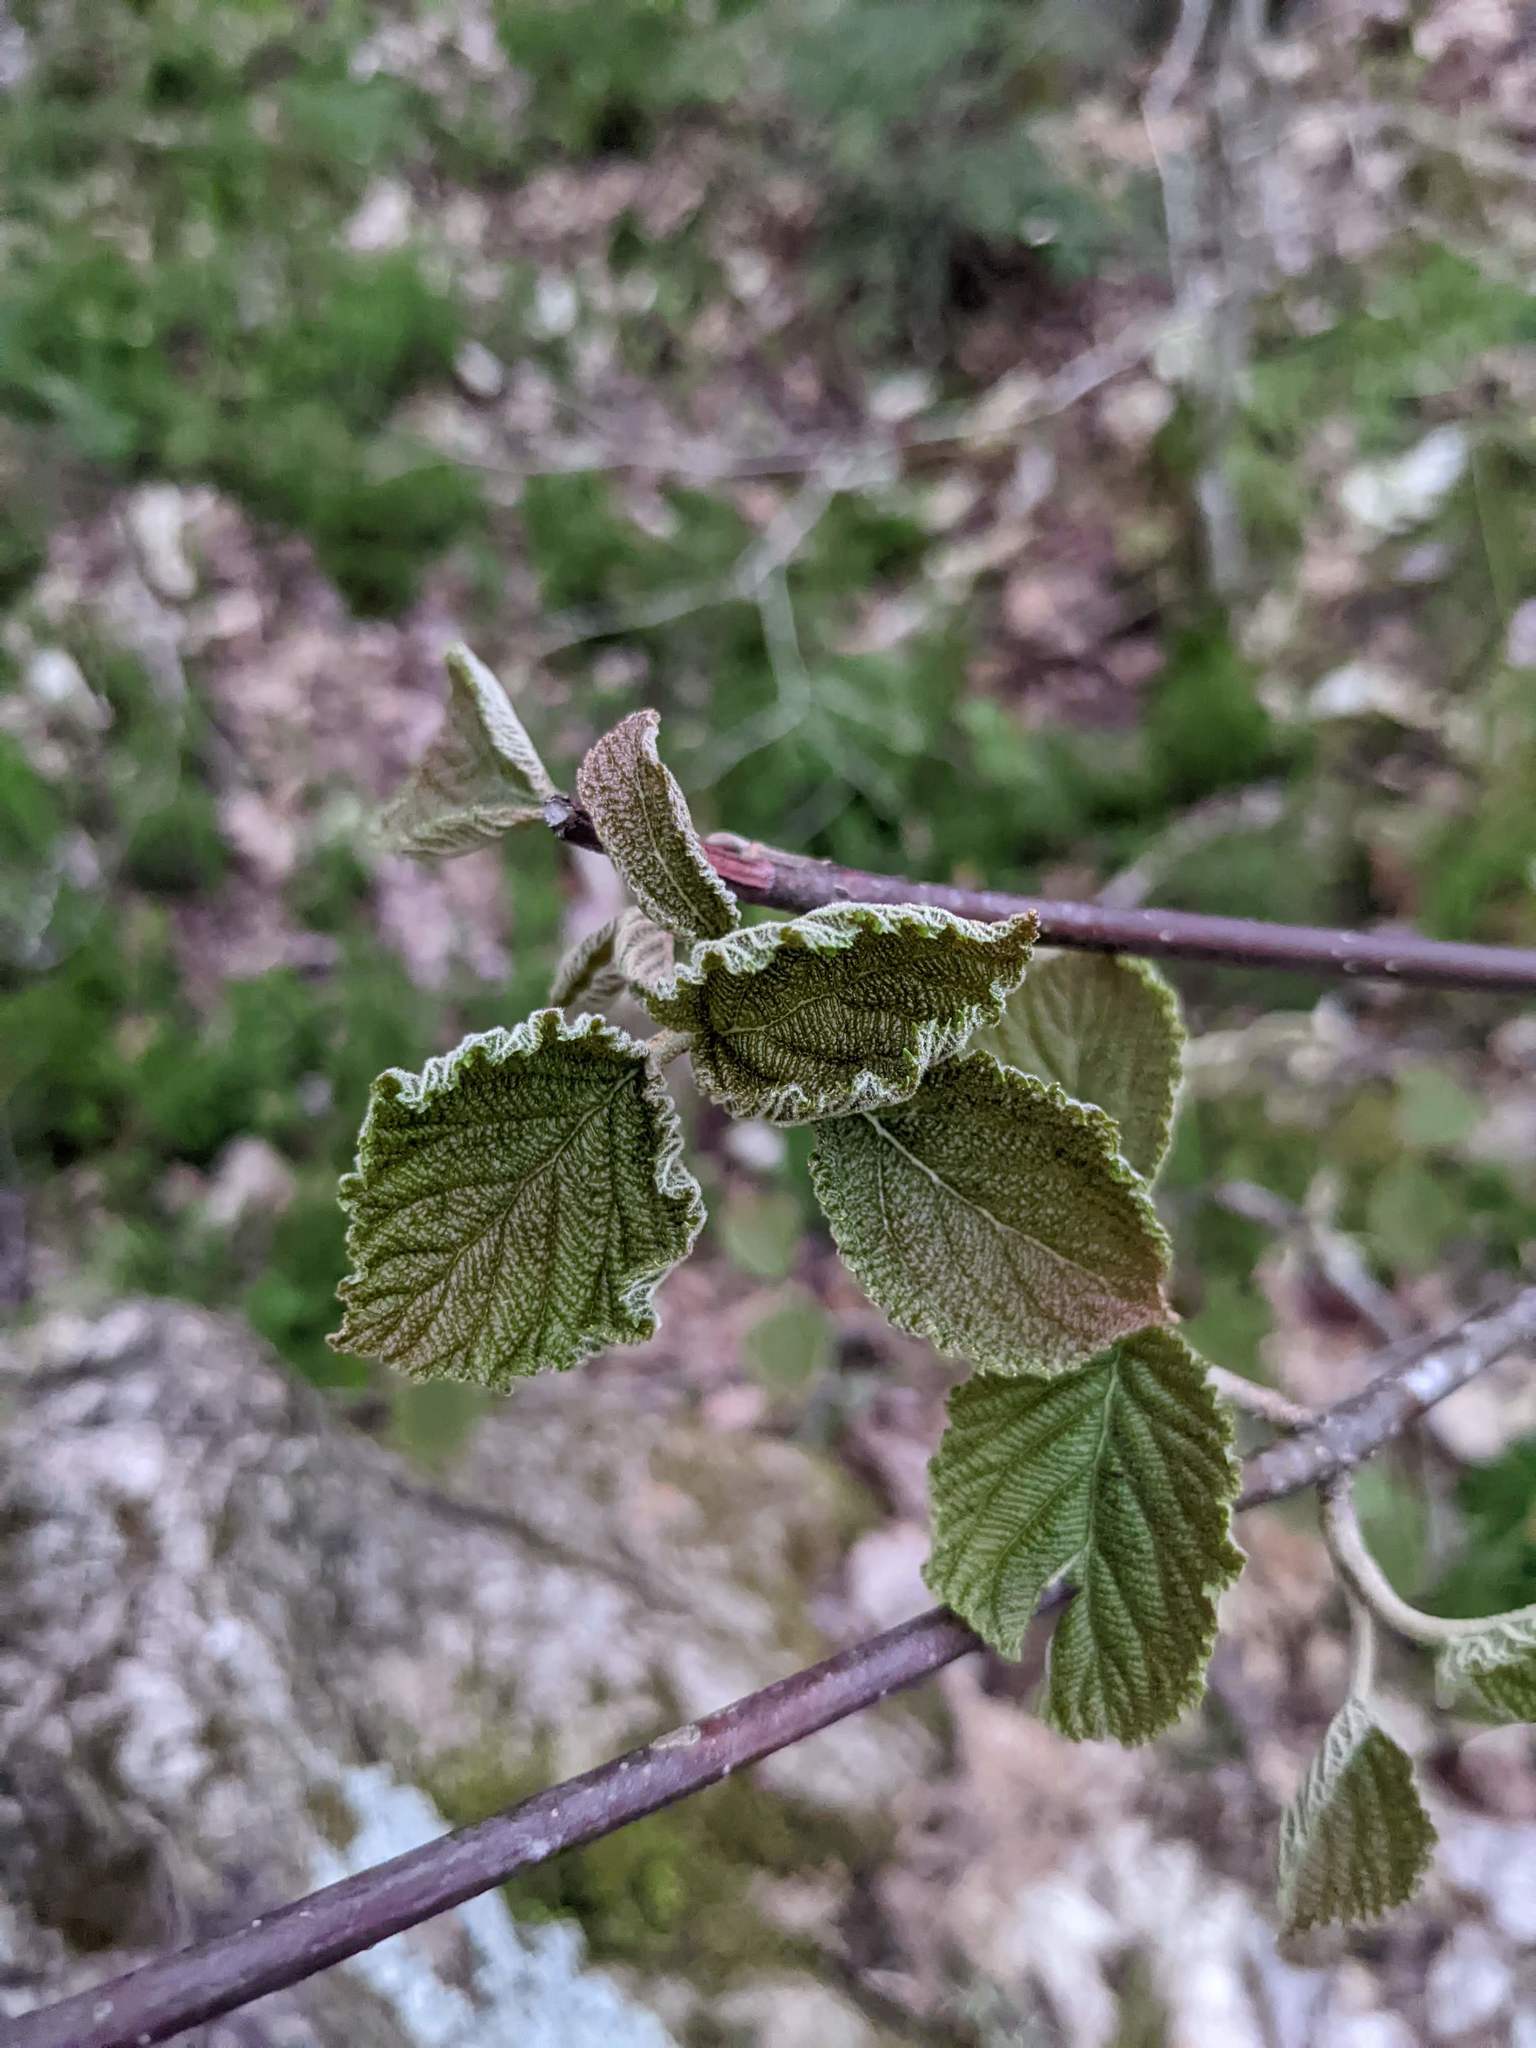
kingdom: Plantae
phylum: Tracheophyta
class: Magnoliopsida
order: Dipsacales
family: Viburnaceae
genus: Viburnum
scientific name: Viburnum lantanoides
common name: Hobblebush
